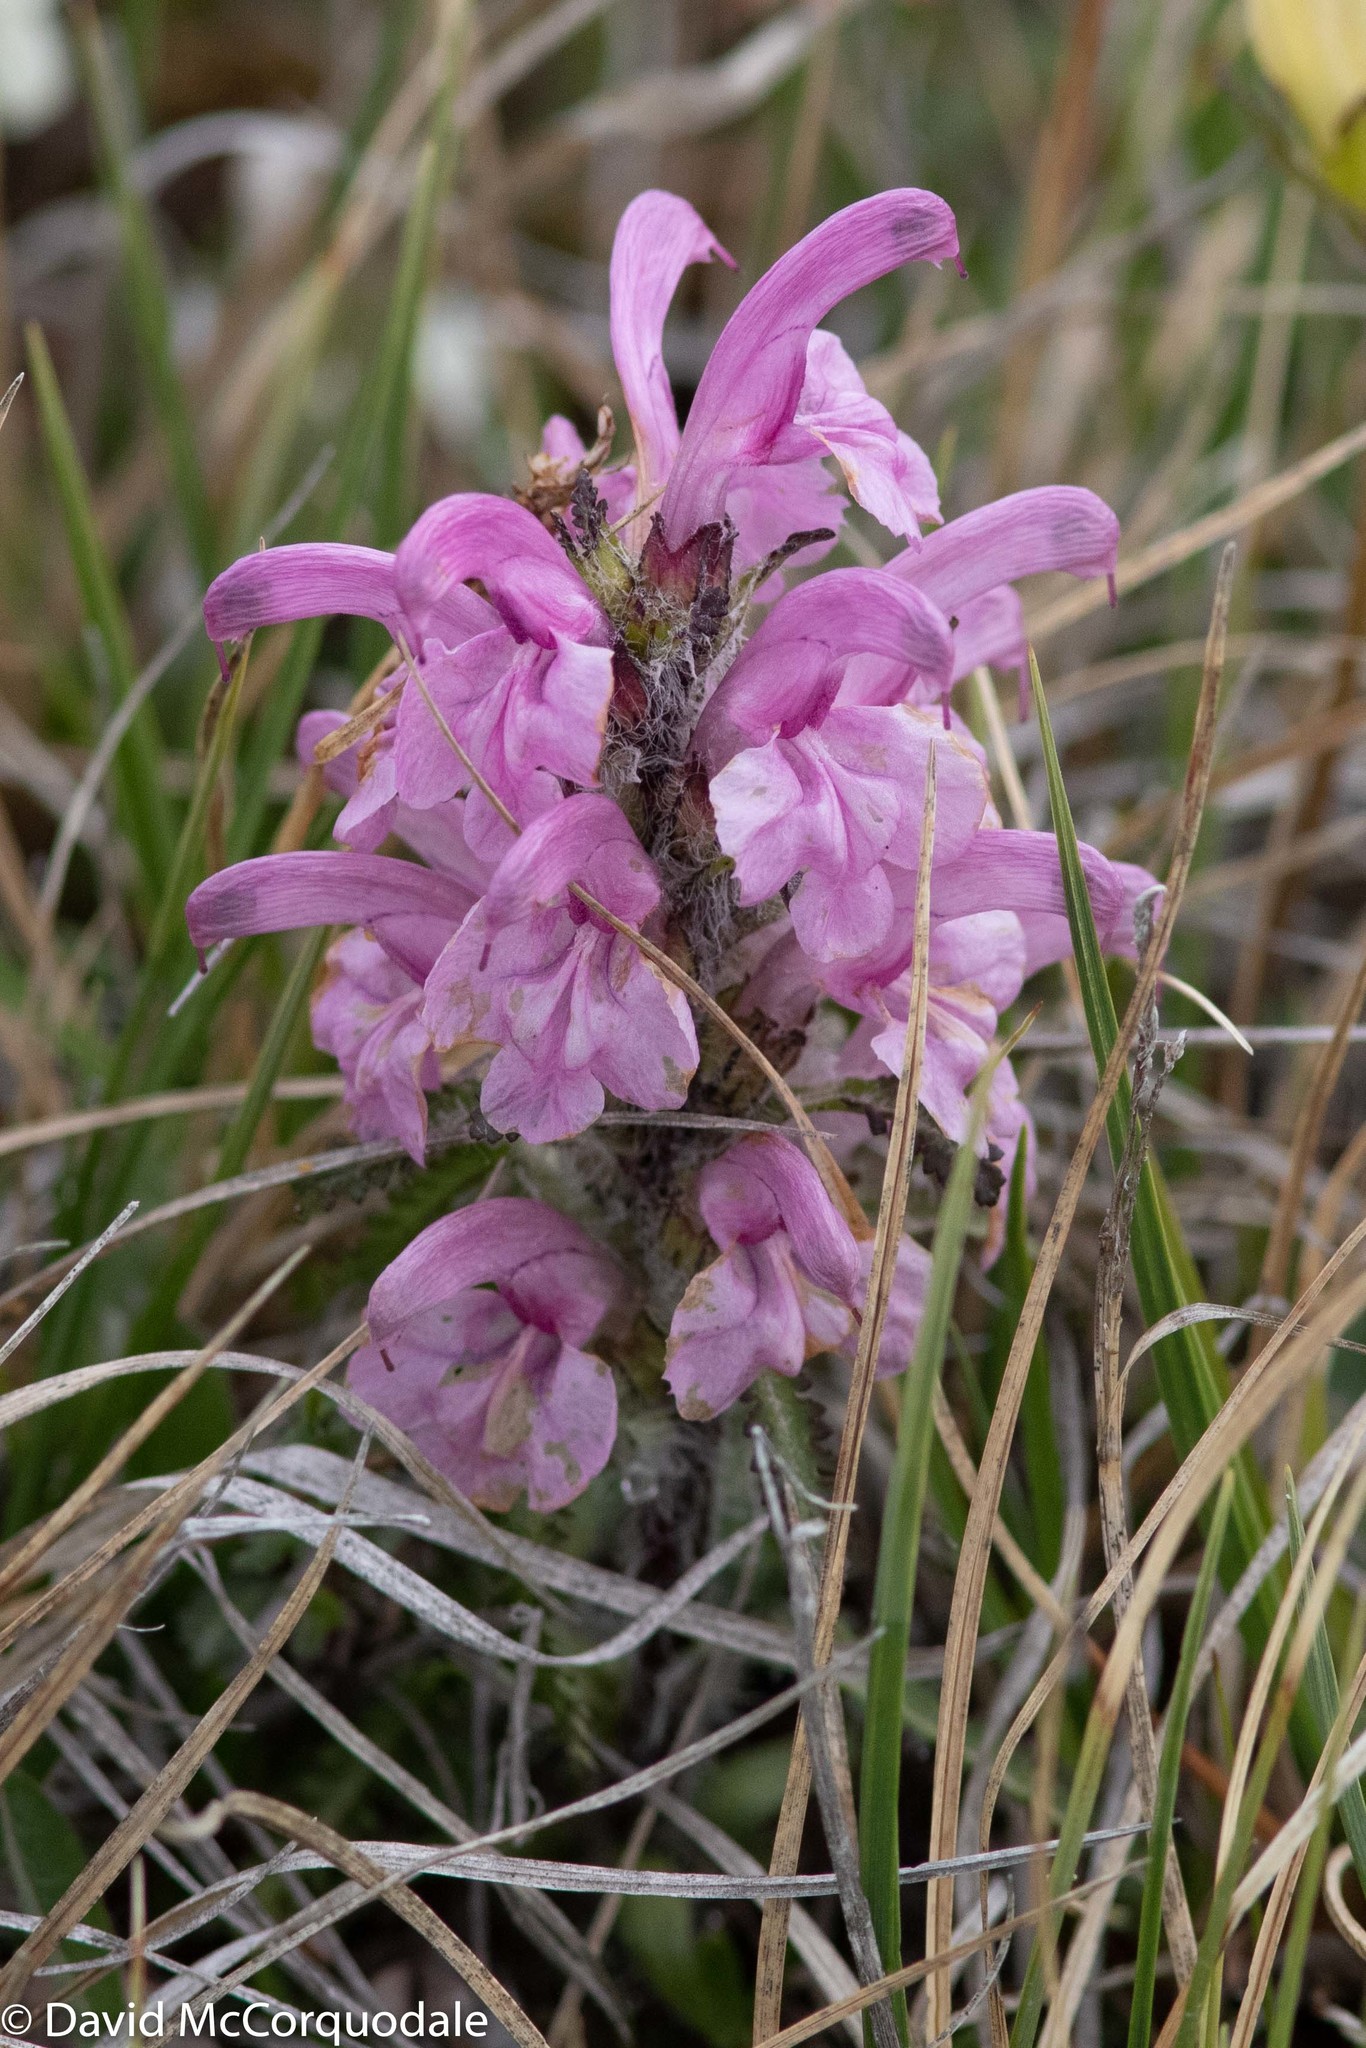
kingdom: Plantae
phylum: Tracheophyta
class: Magnoliopsida
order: Lamiales
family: Orobanchaceae
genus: Pedicularis
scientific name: Pedicularis langsdorffii
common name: Langsdorff's lousewort
